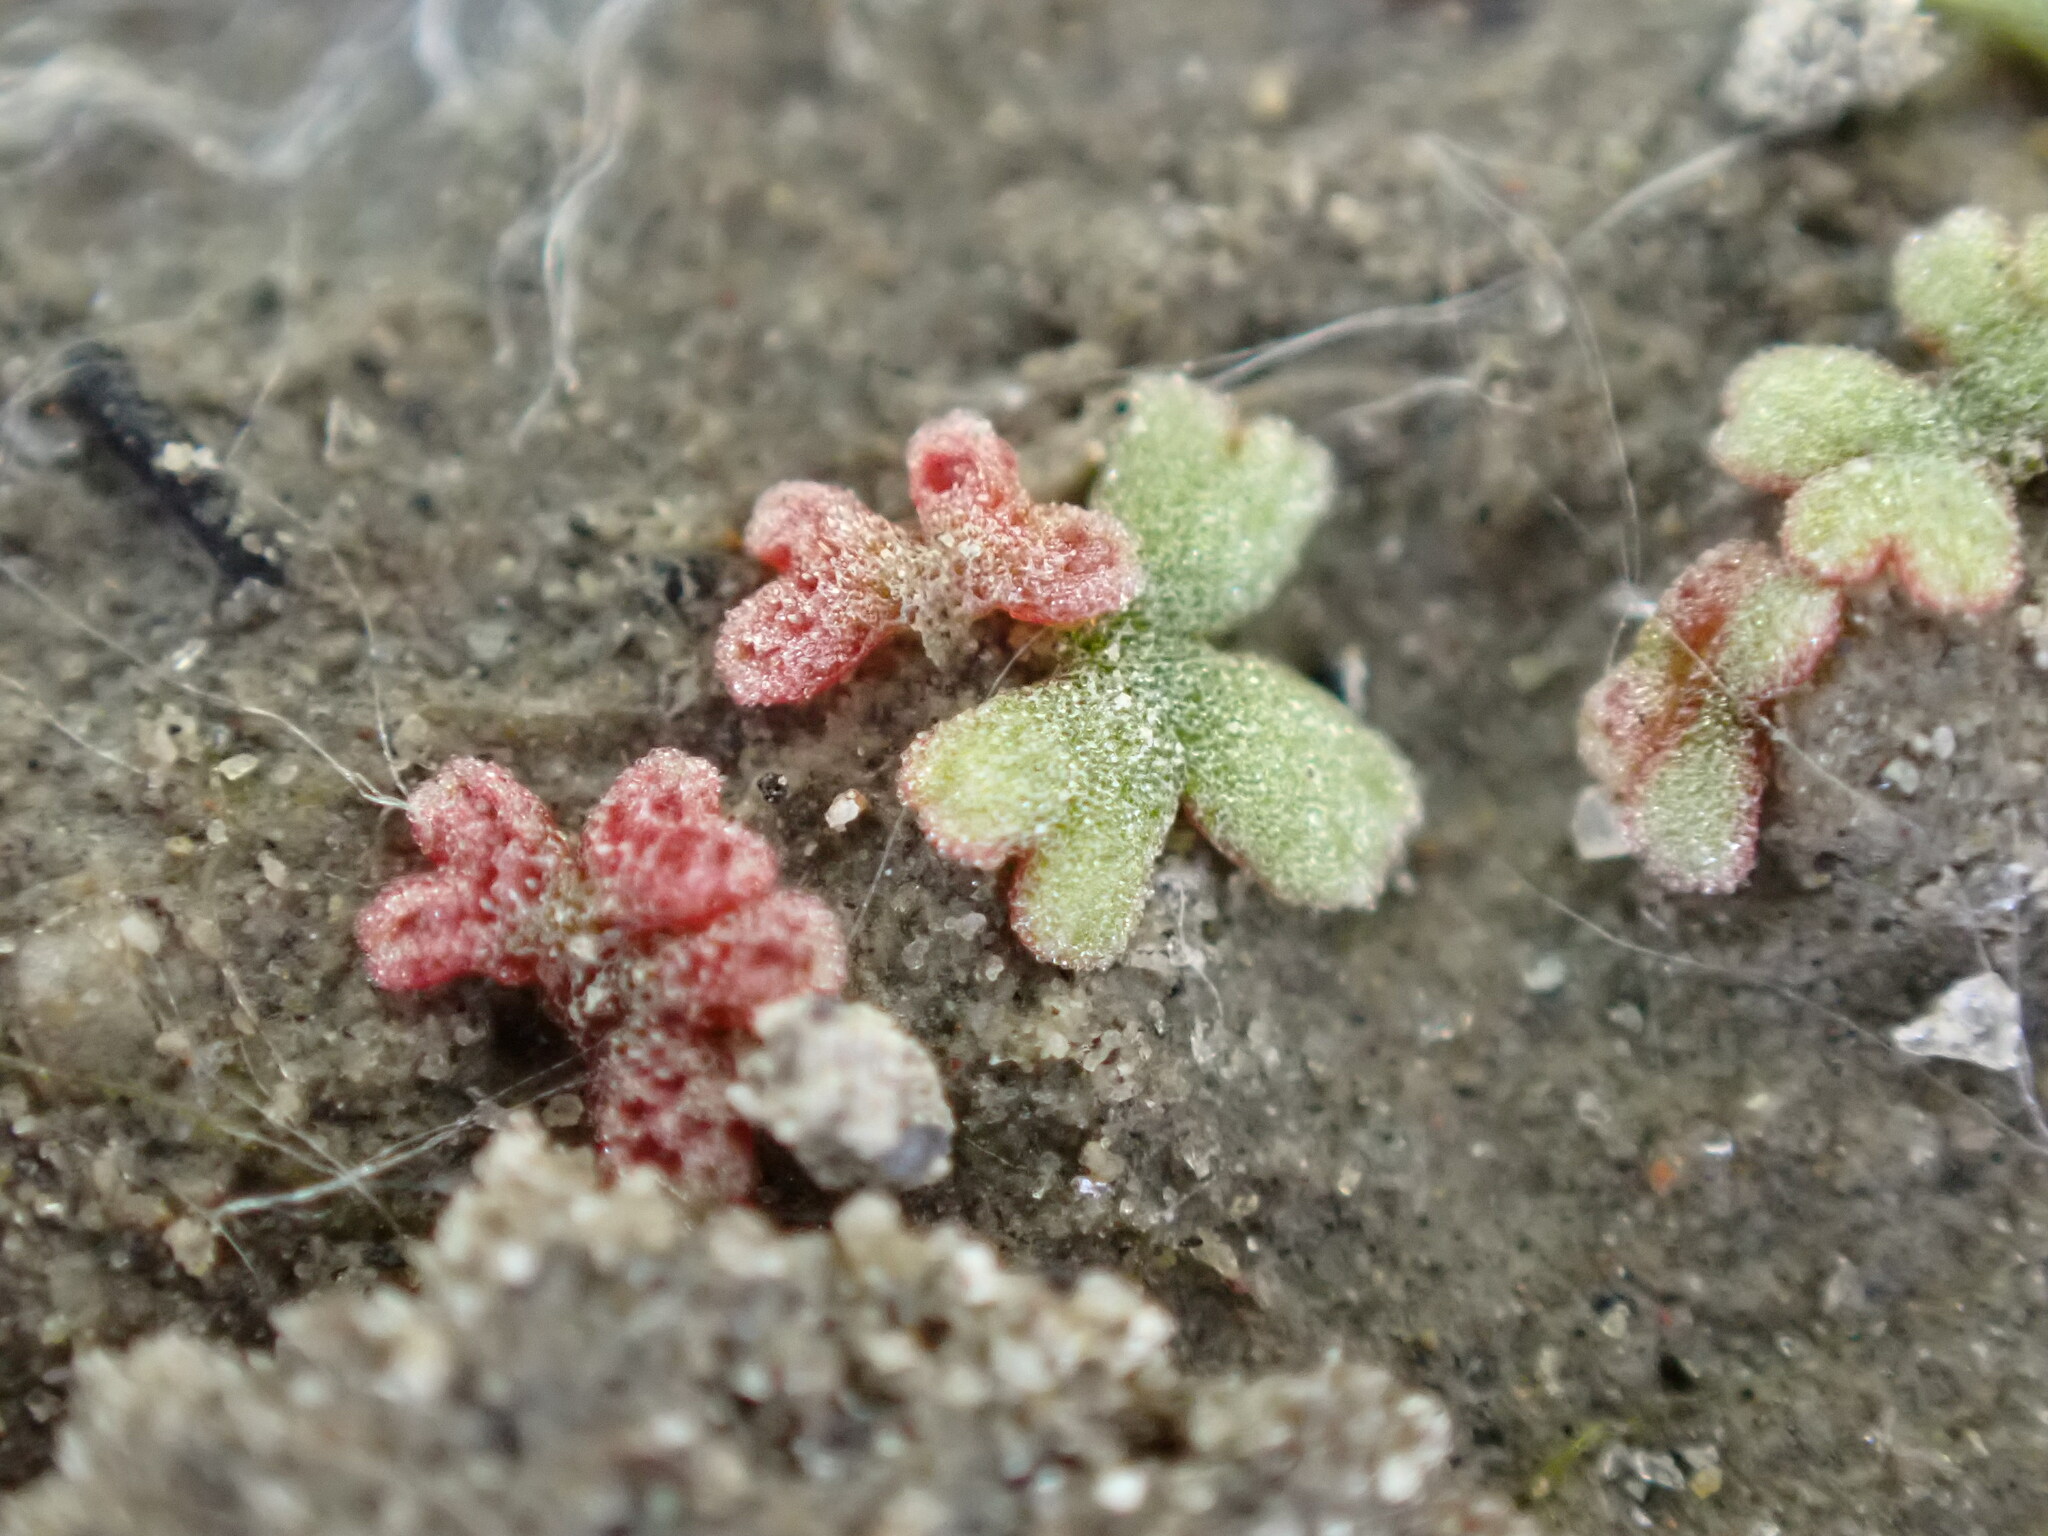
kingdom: Plantae
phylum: Marchantiophyta
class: Marchantiopsida
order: Marchantiales
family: Ricciaceae
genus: Riccia
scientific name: Riccia frostii
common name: Frost s crystalwort
